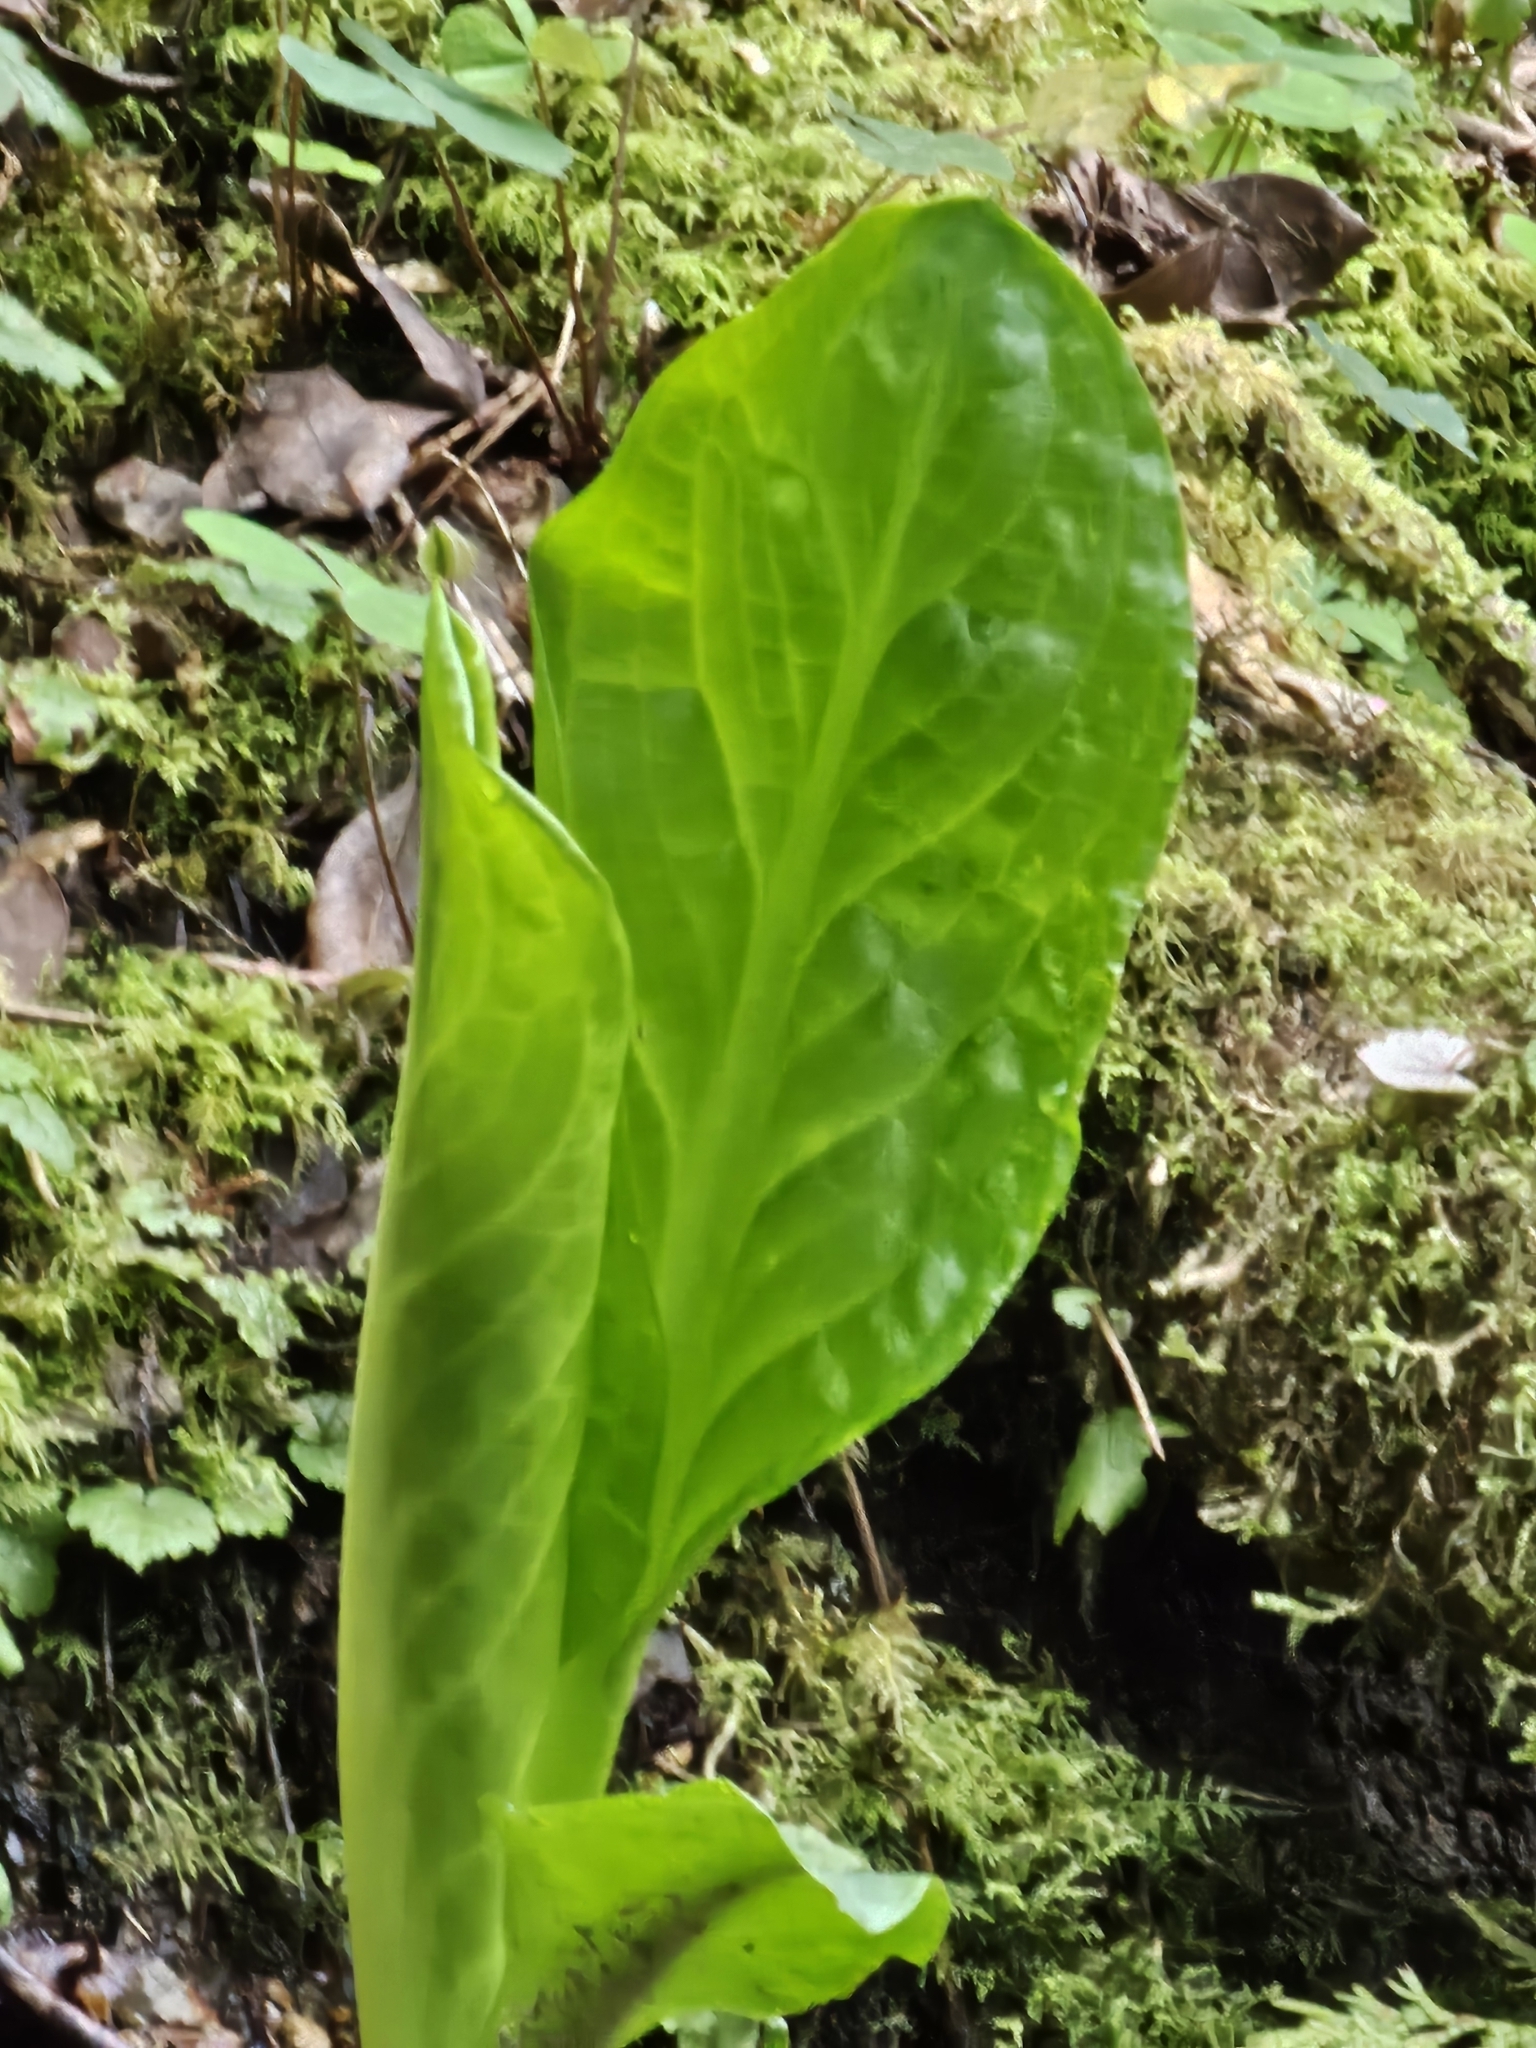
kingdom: Plantae
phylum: Tracheophyta
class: Liliopsida
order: Alismatales
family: Araceae
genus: Lysichiton
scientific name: Lysichiton americanus
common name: American skunk cabbage
